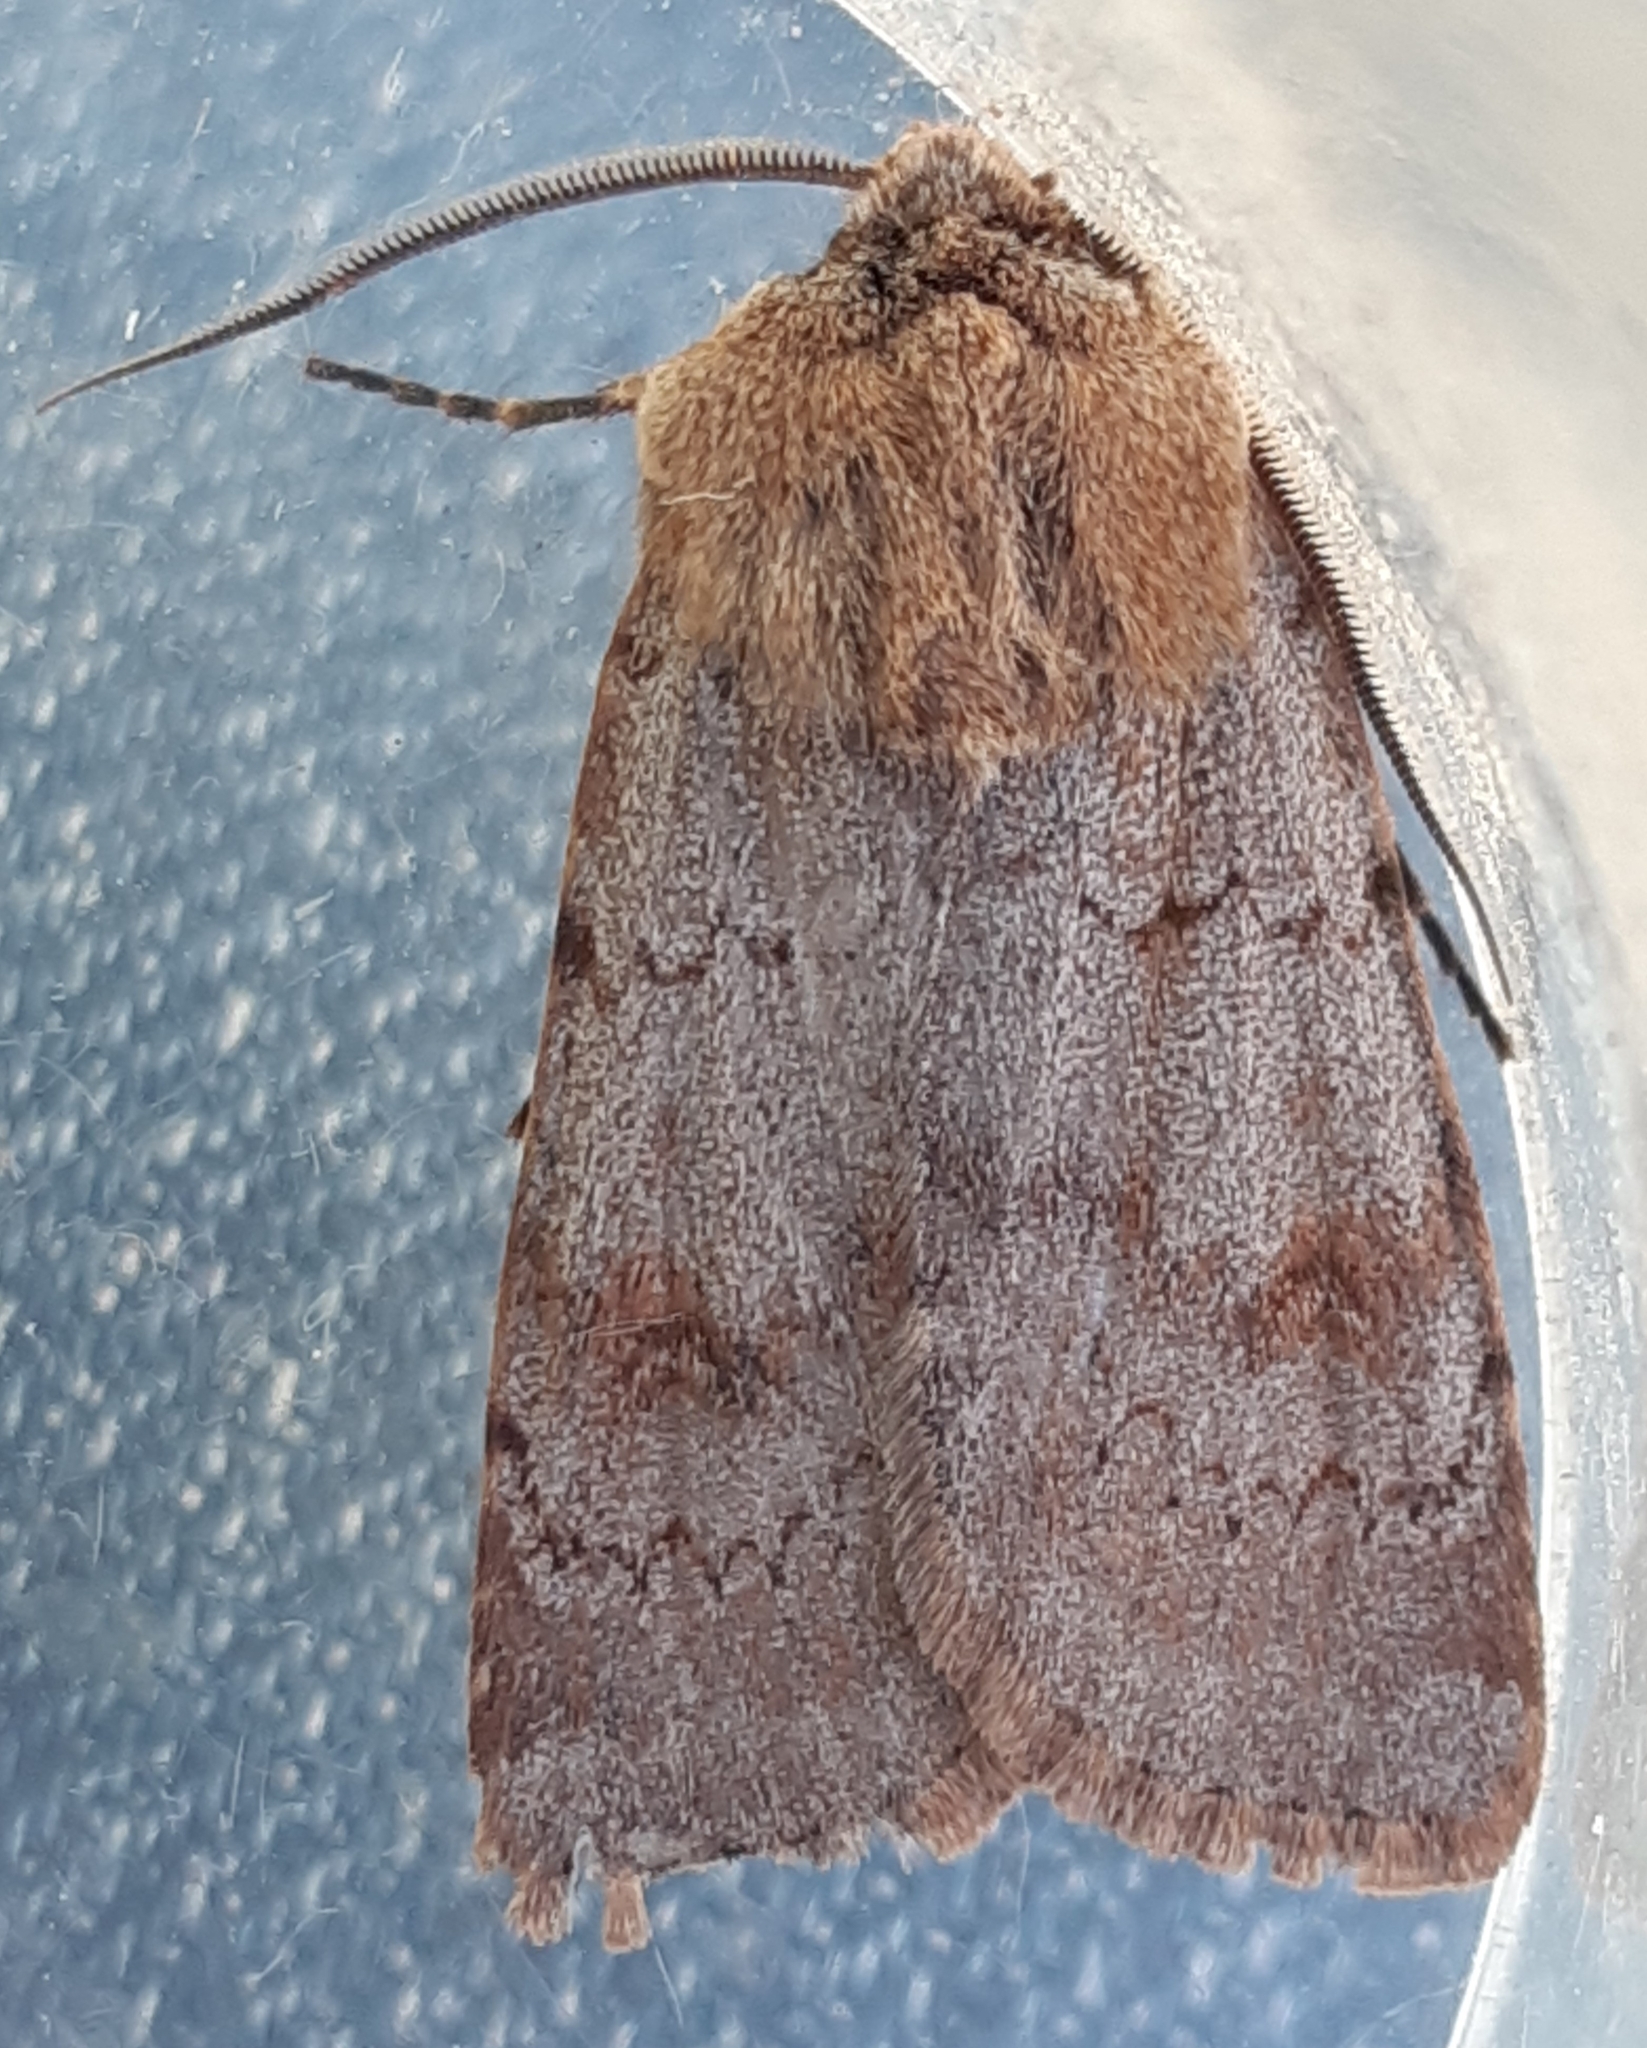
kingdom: Animalia
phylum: Arthropoda
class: Insecta
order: Lepidoptera
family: Noctuidae
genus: Agrotis
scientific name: Agrotis cinerea
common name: Light feathered rustic
